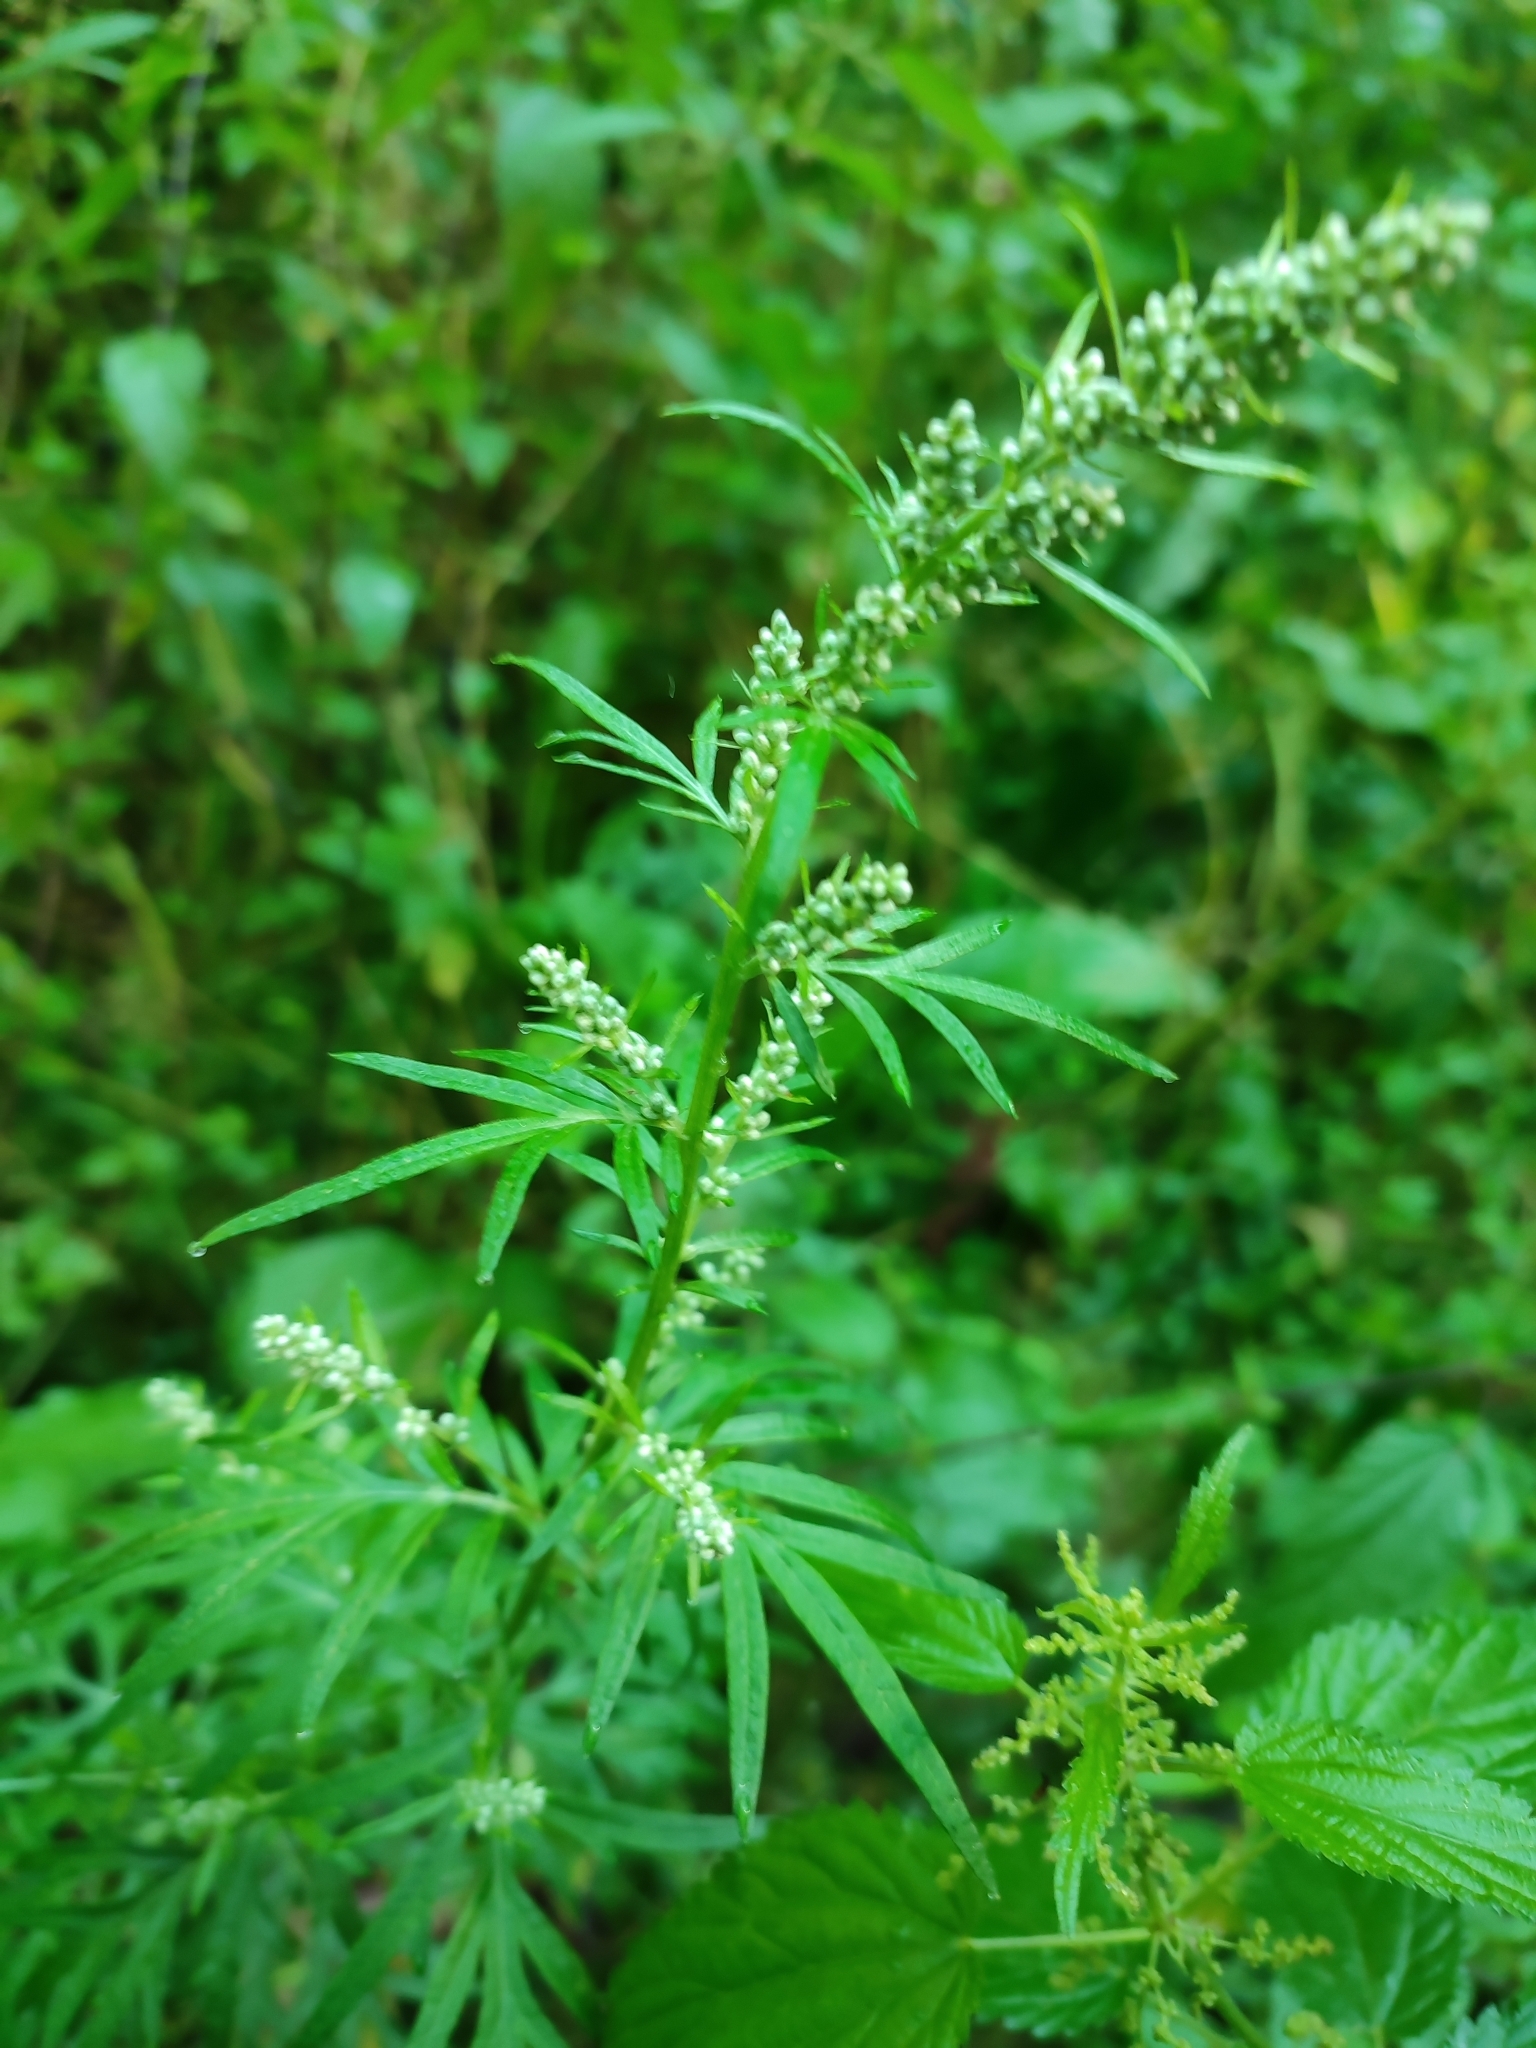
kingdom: Plantae
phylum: Tracheophyta
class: Magnoliopsida
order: Asterales
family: Asteraceae
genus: Artemisia
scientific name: Artemisia vulgaris
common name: Mugwort
